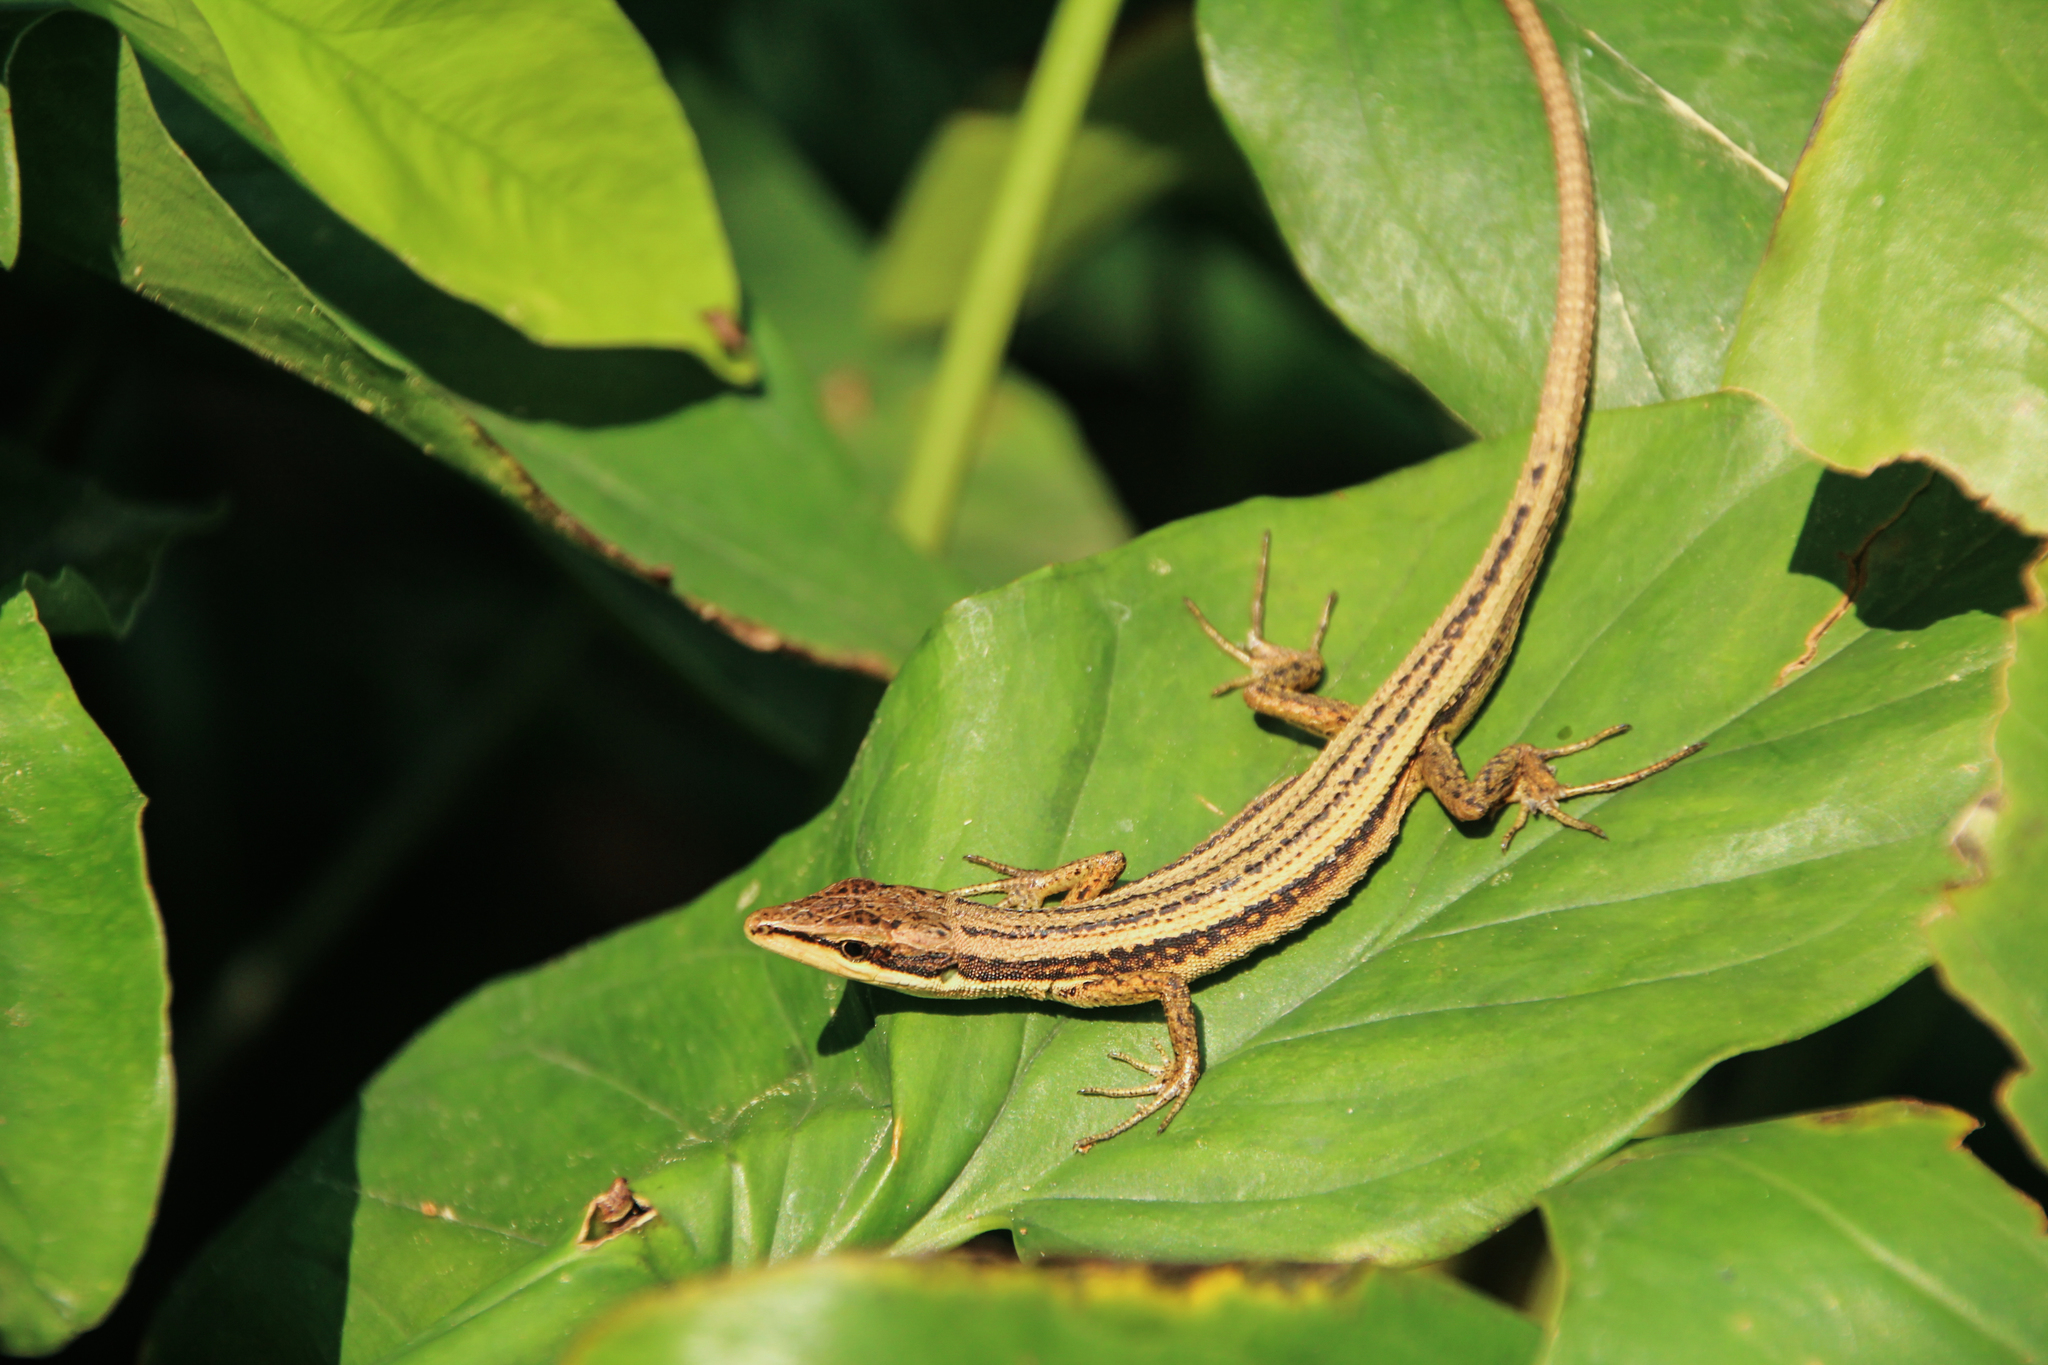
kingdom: Animalia
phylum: Chordata
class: Squamata
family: Lacertidae
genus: Takydromus
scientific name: Takydromus kuehnei
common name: Kuhne’s grass lizard
